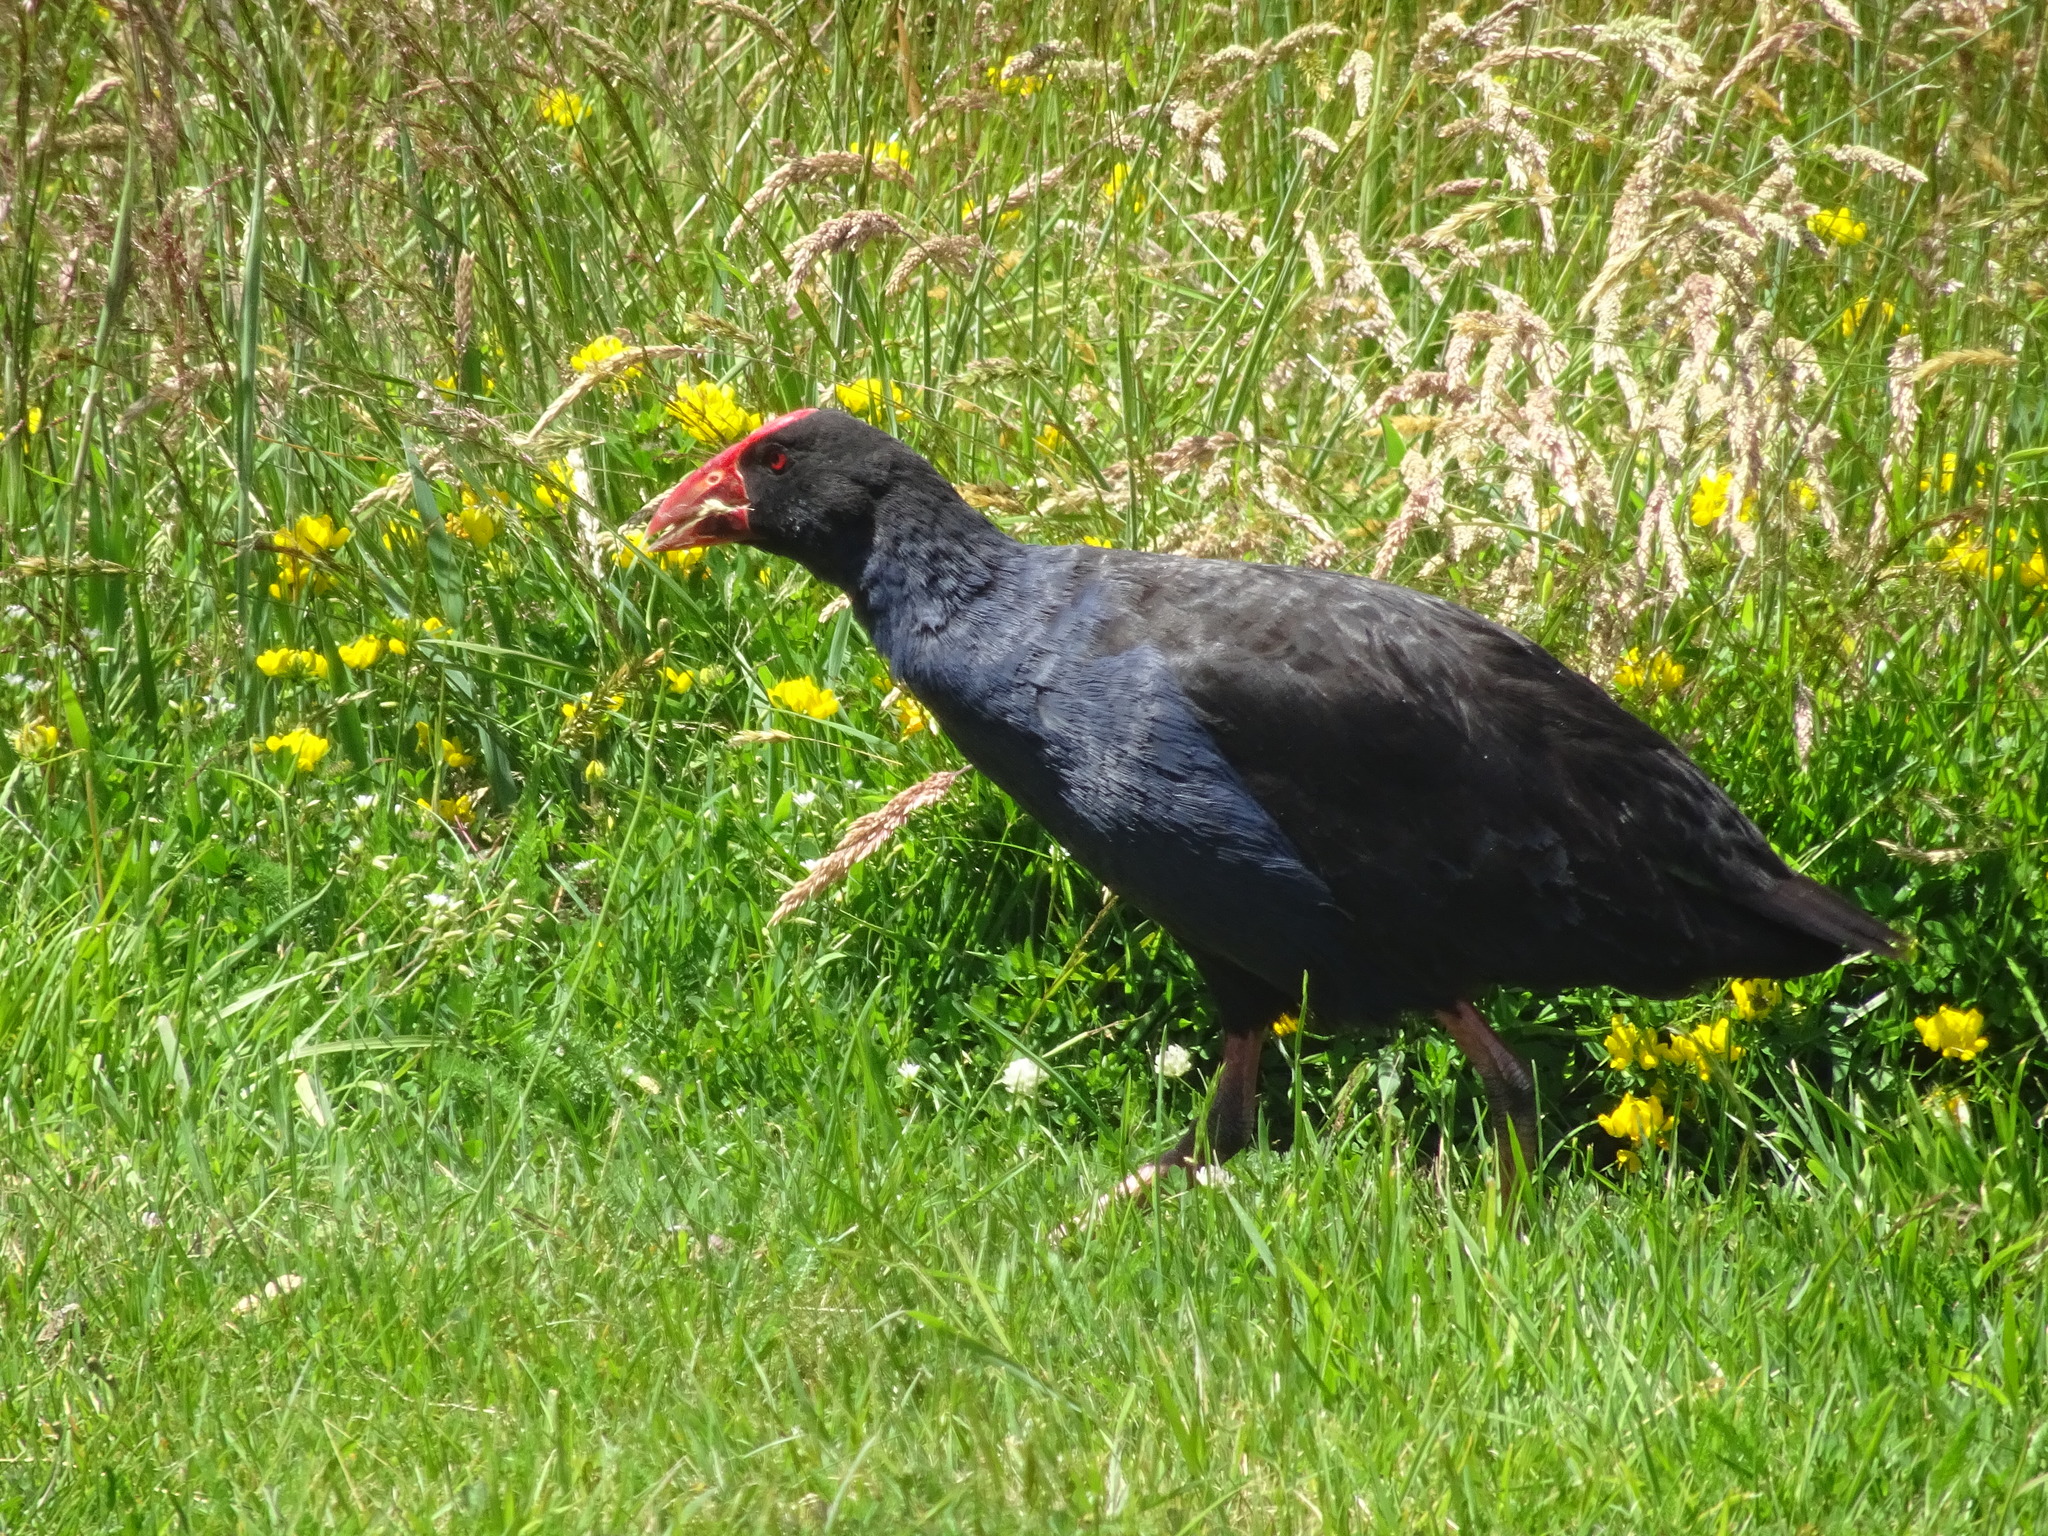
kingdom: Animalia
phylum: Chordata
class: Aves
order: Gruiformes
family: Rallidae
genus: Porphyrio
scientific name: Porphyrio melanotus
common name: Australasian swamphen
